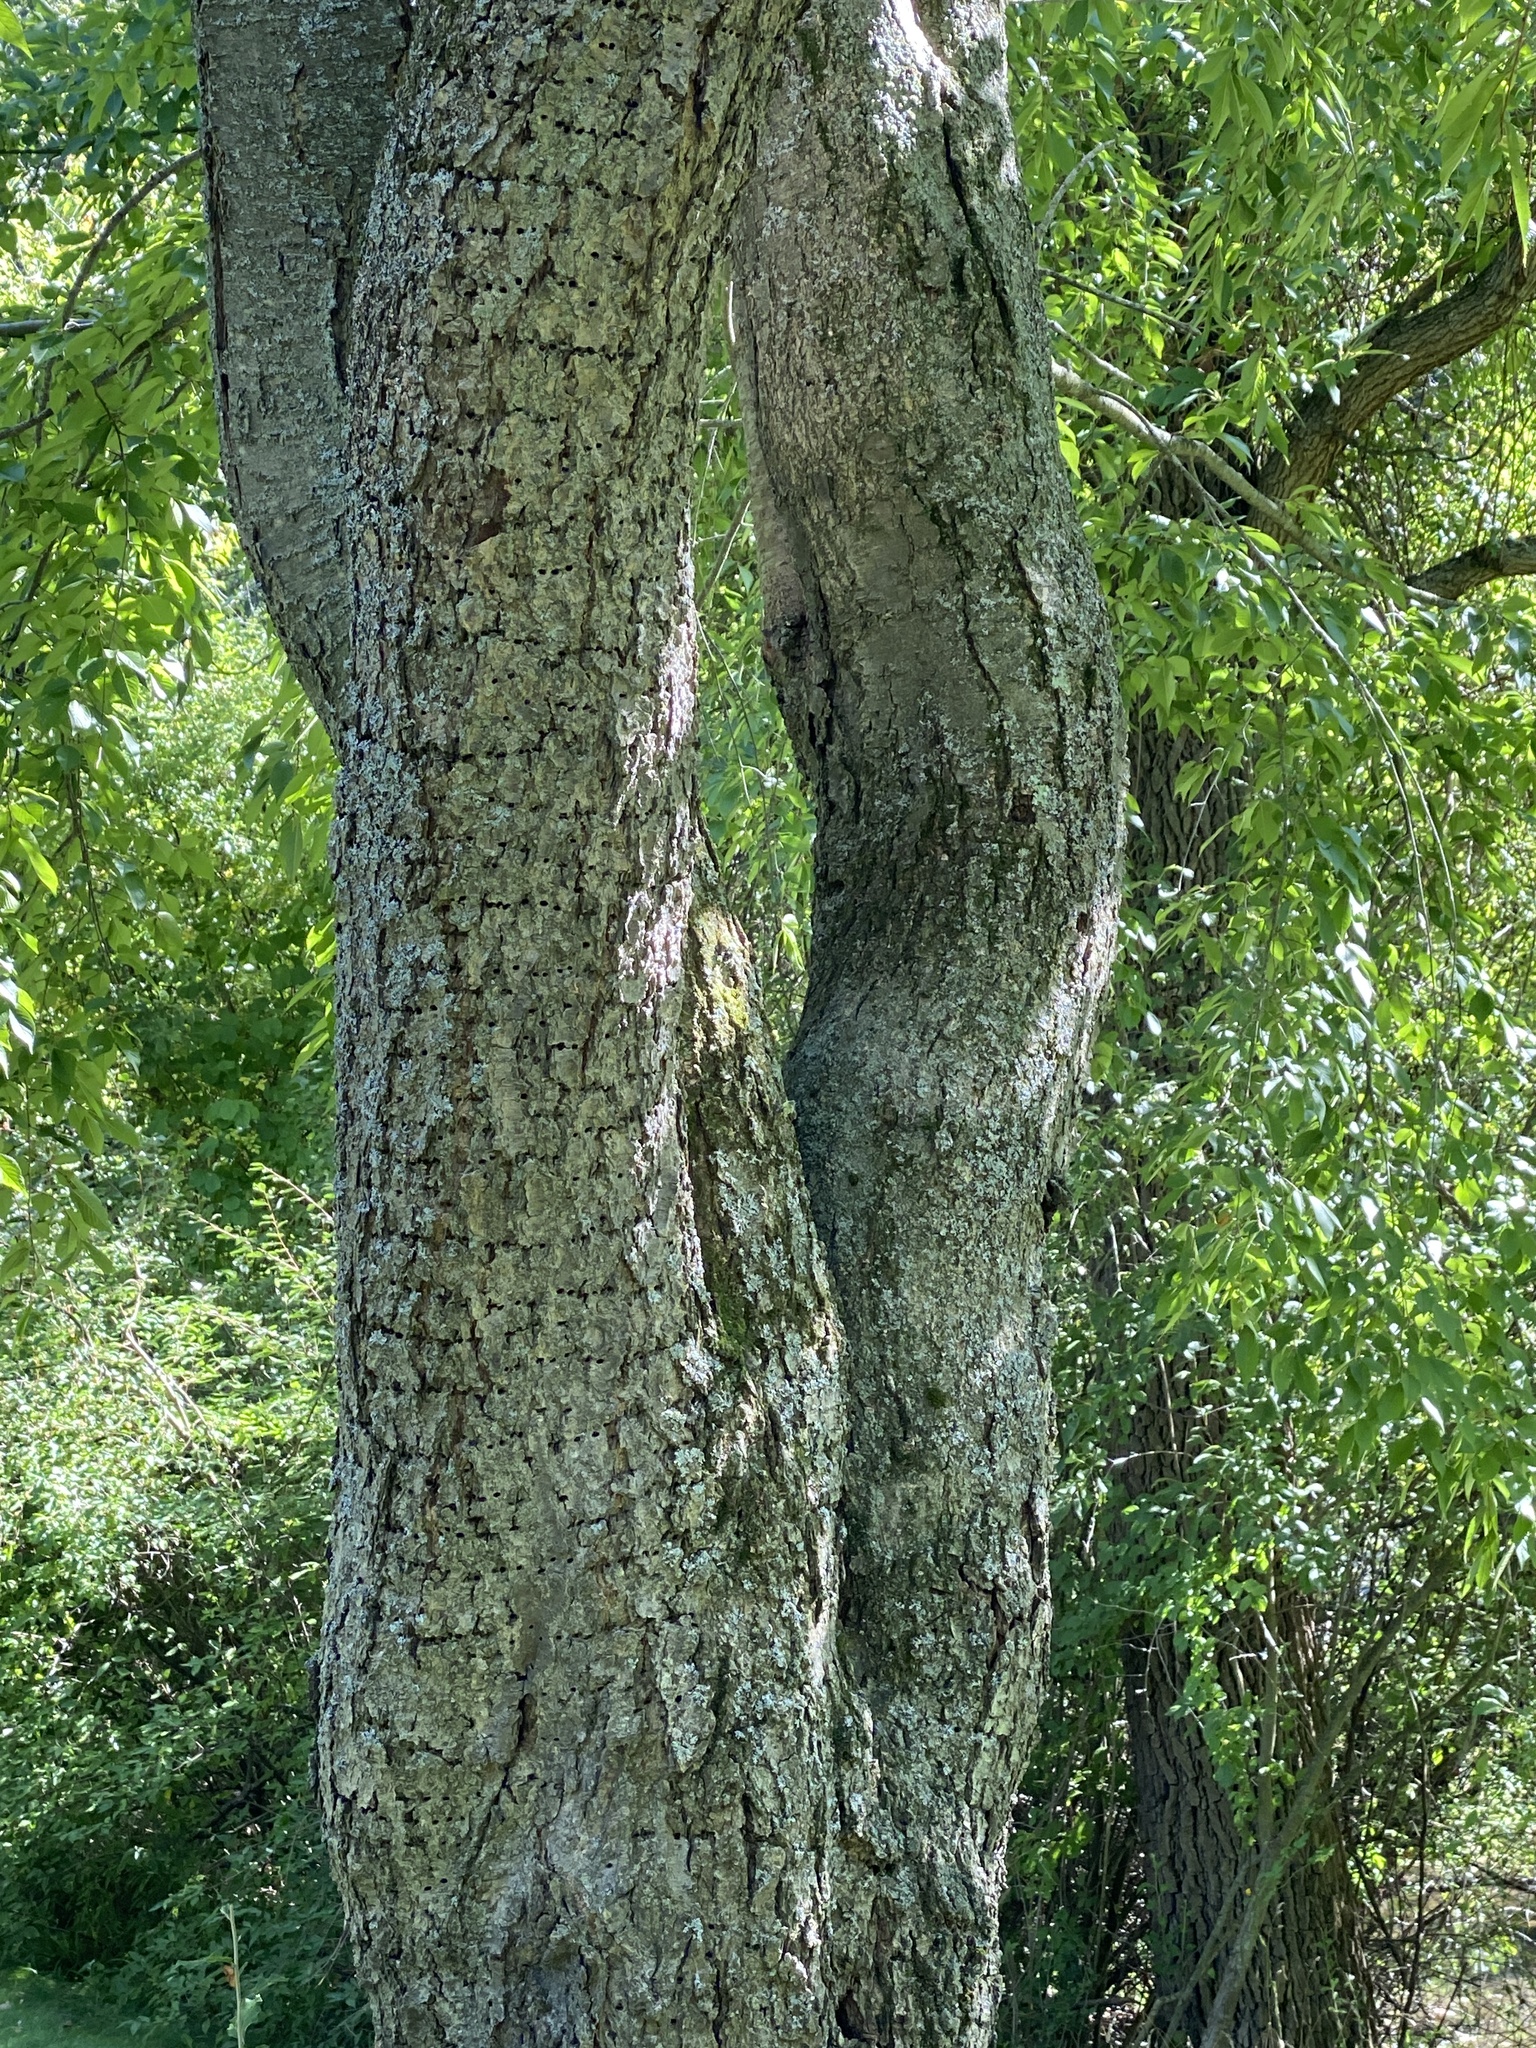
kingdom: Animalia
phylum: Chordata
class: Aves
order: Piciformes
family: Picidae
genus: Sphyrapicus
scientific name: Sphyrapicus varius
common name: Yellow-bellied sapsucker
